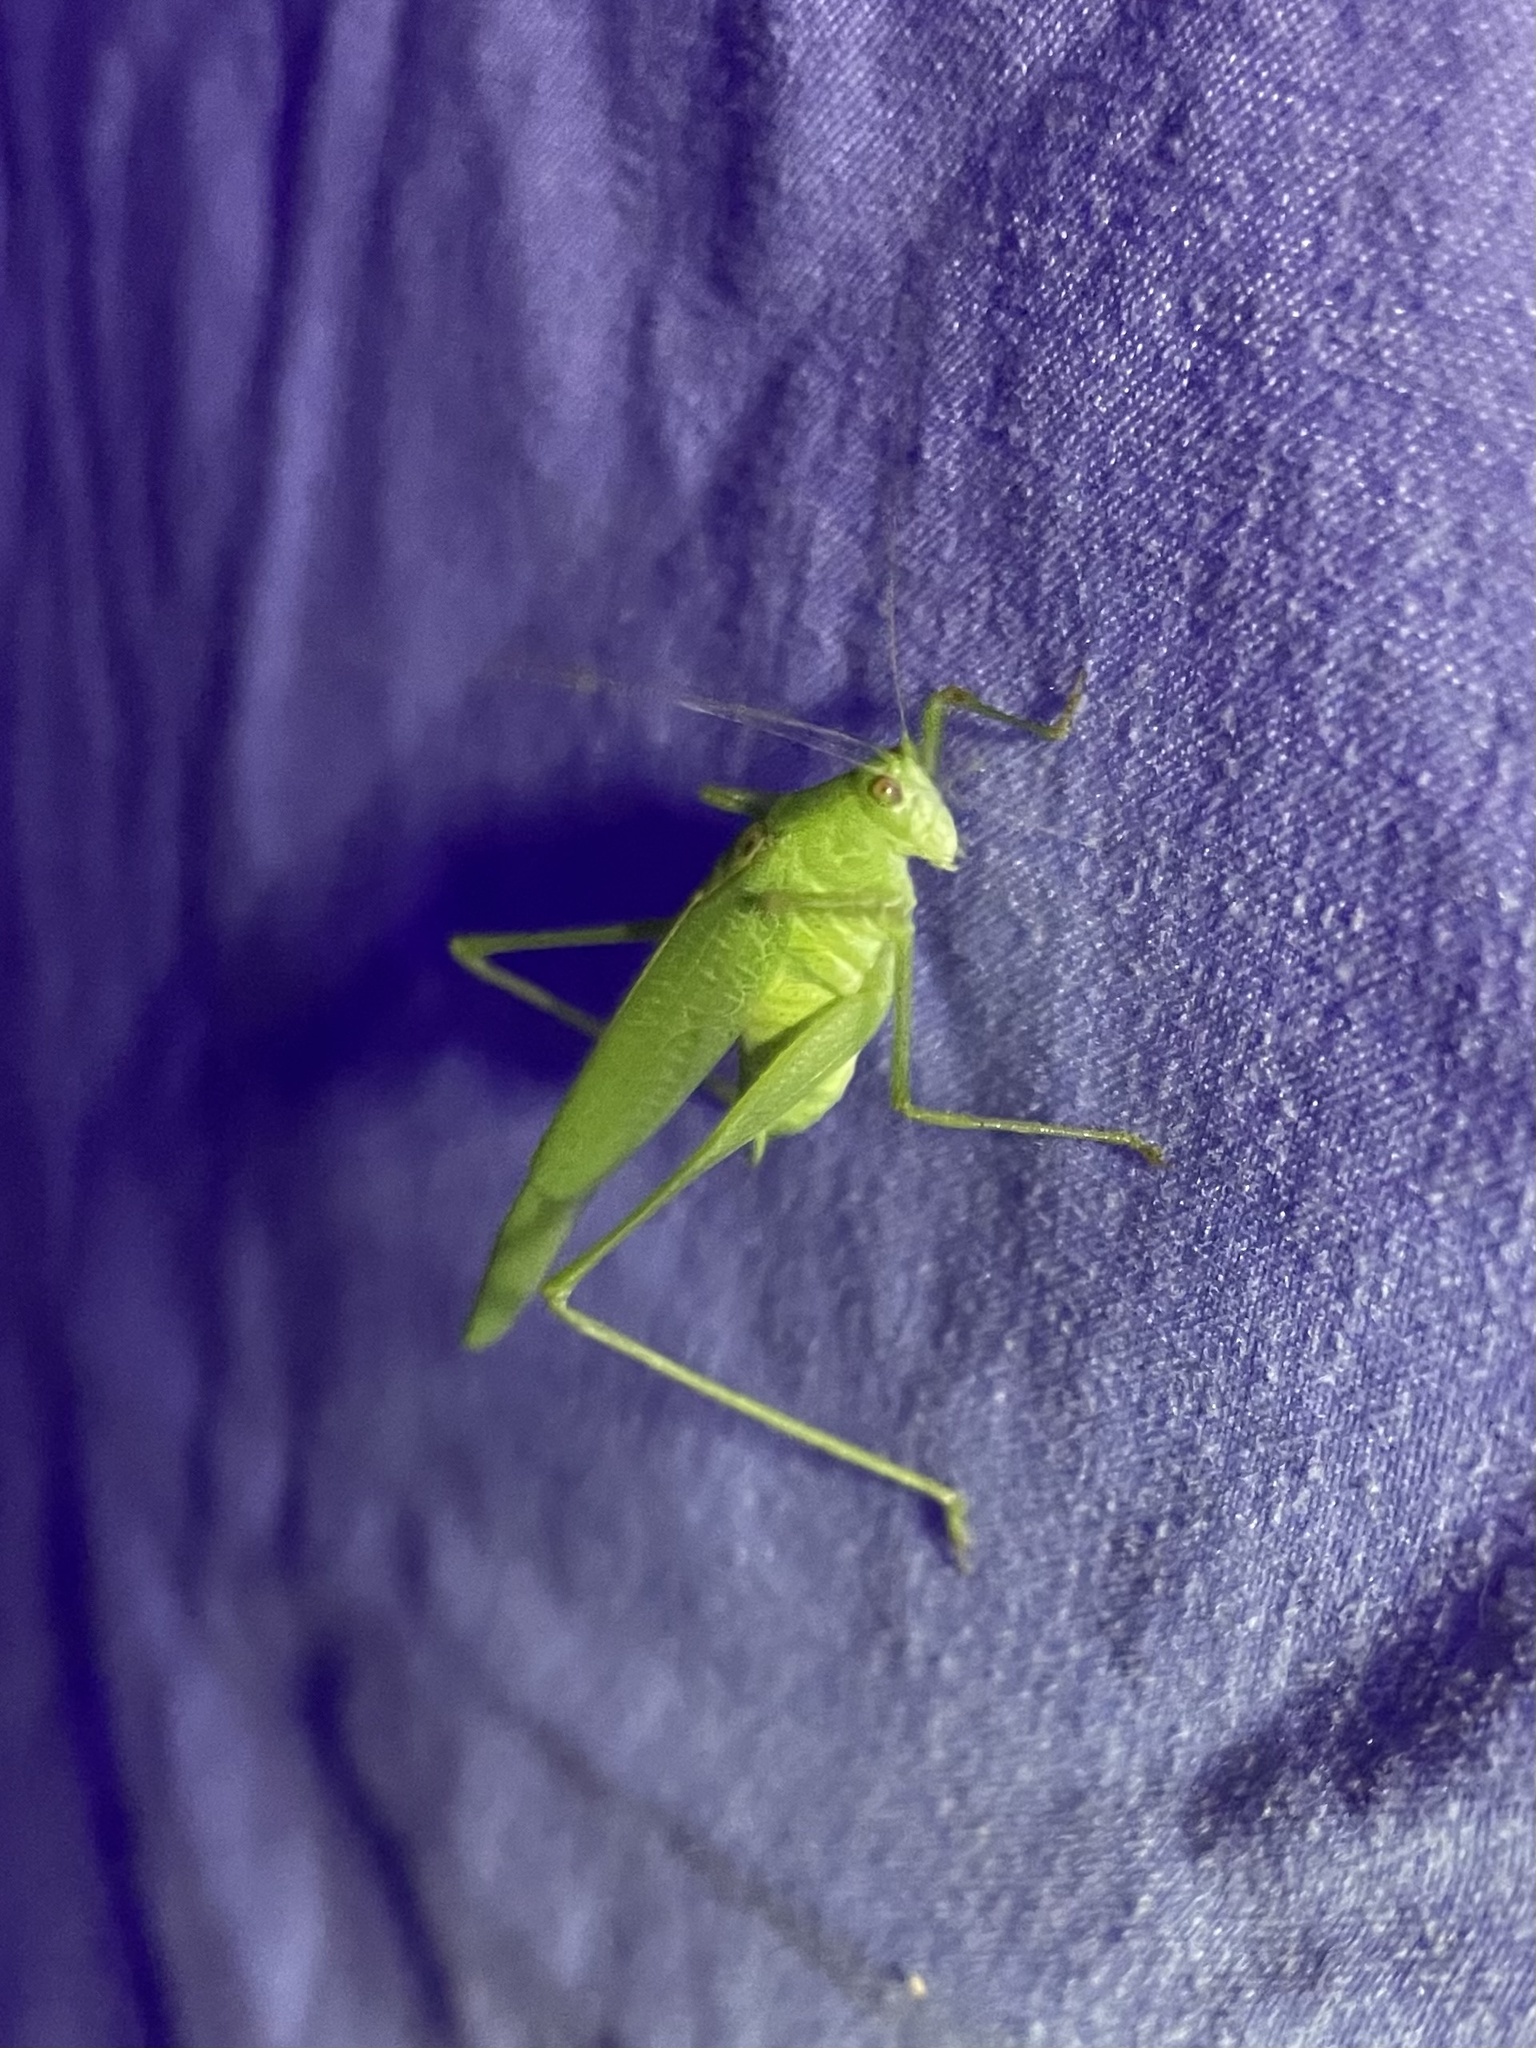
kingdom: Animalia
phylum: Arthropoda
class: Insecta
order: Orthoptera
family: Tettigoniidae
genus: Phaneroptera
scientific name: Phaneroptera nana
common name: Southern sickle bush-cricket
